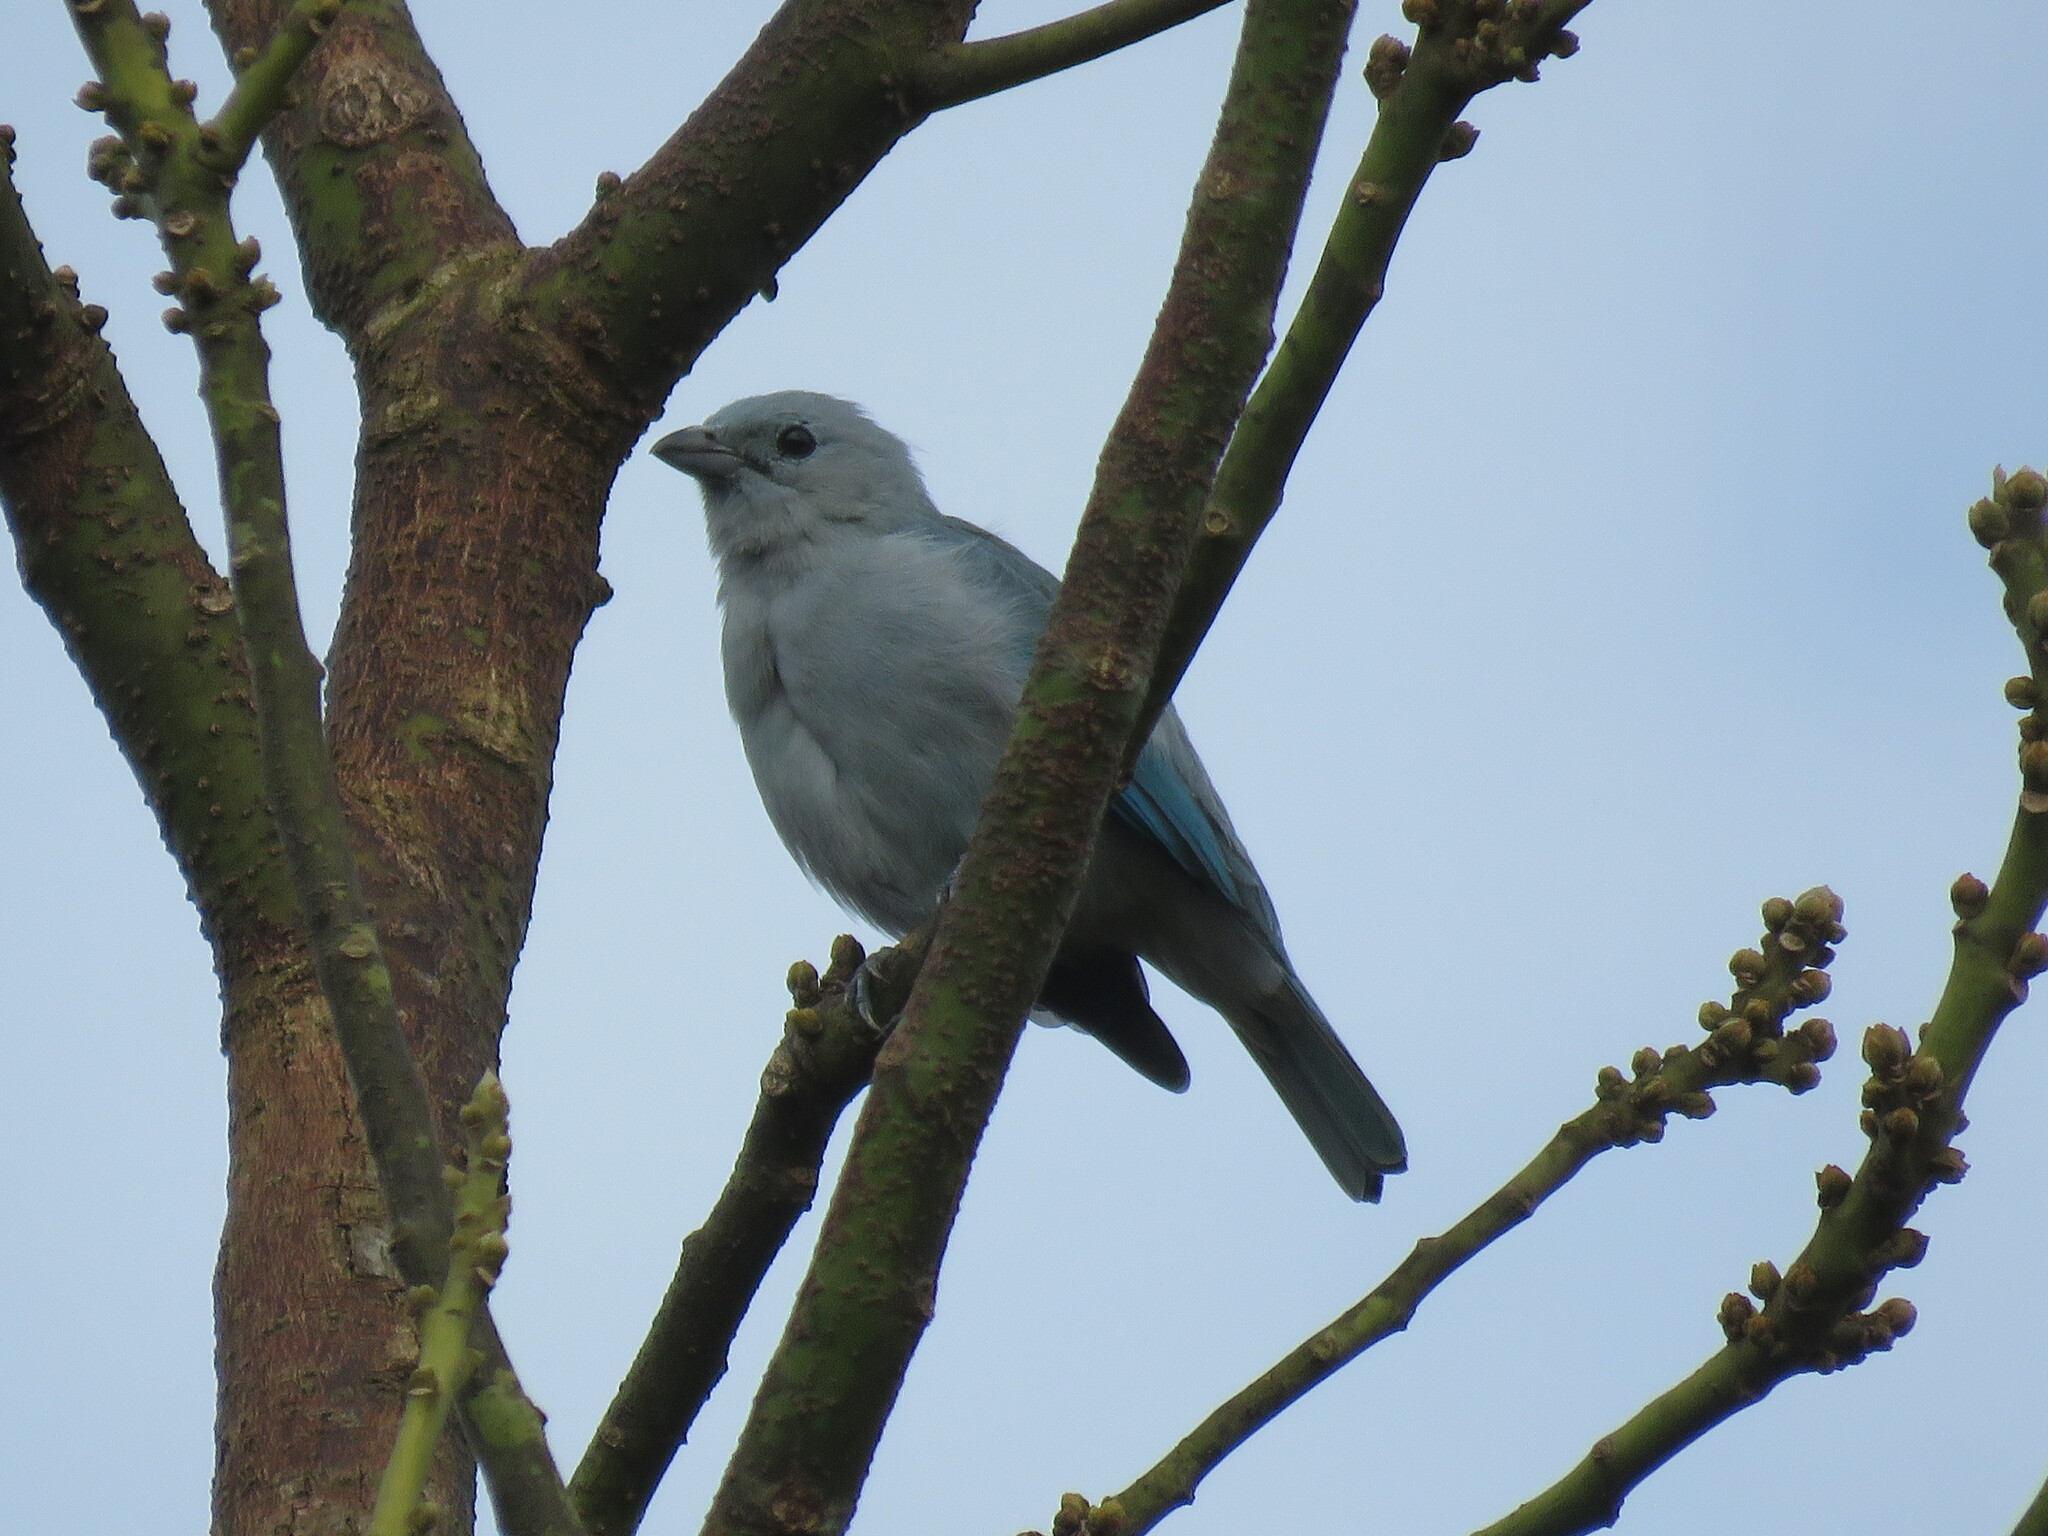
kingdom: Animalia
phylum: Chordata
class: Aves
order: Passeriformes
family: Thraupidae
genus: Thraupis
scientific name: Thraupis episcopus
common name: Blue-grey tanager
